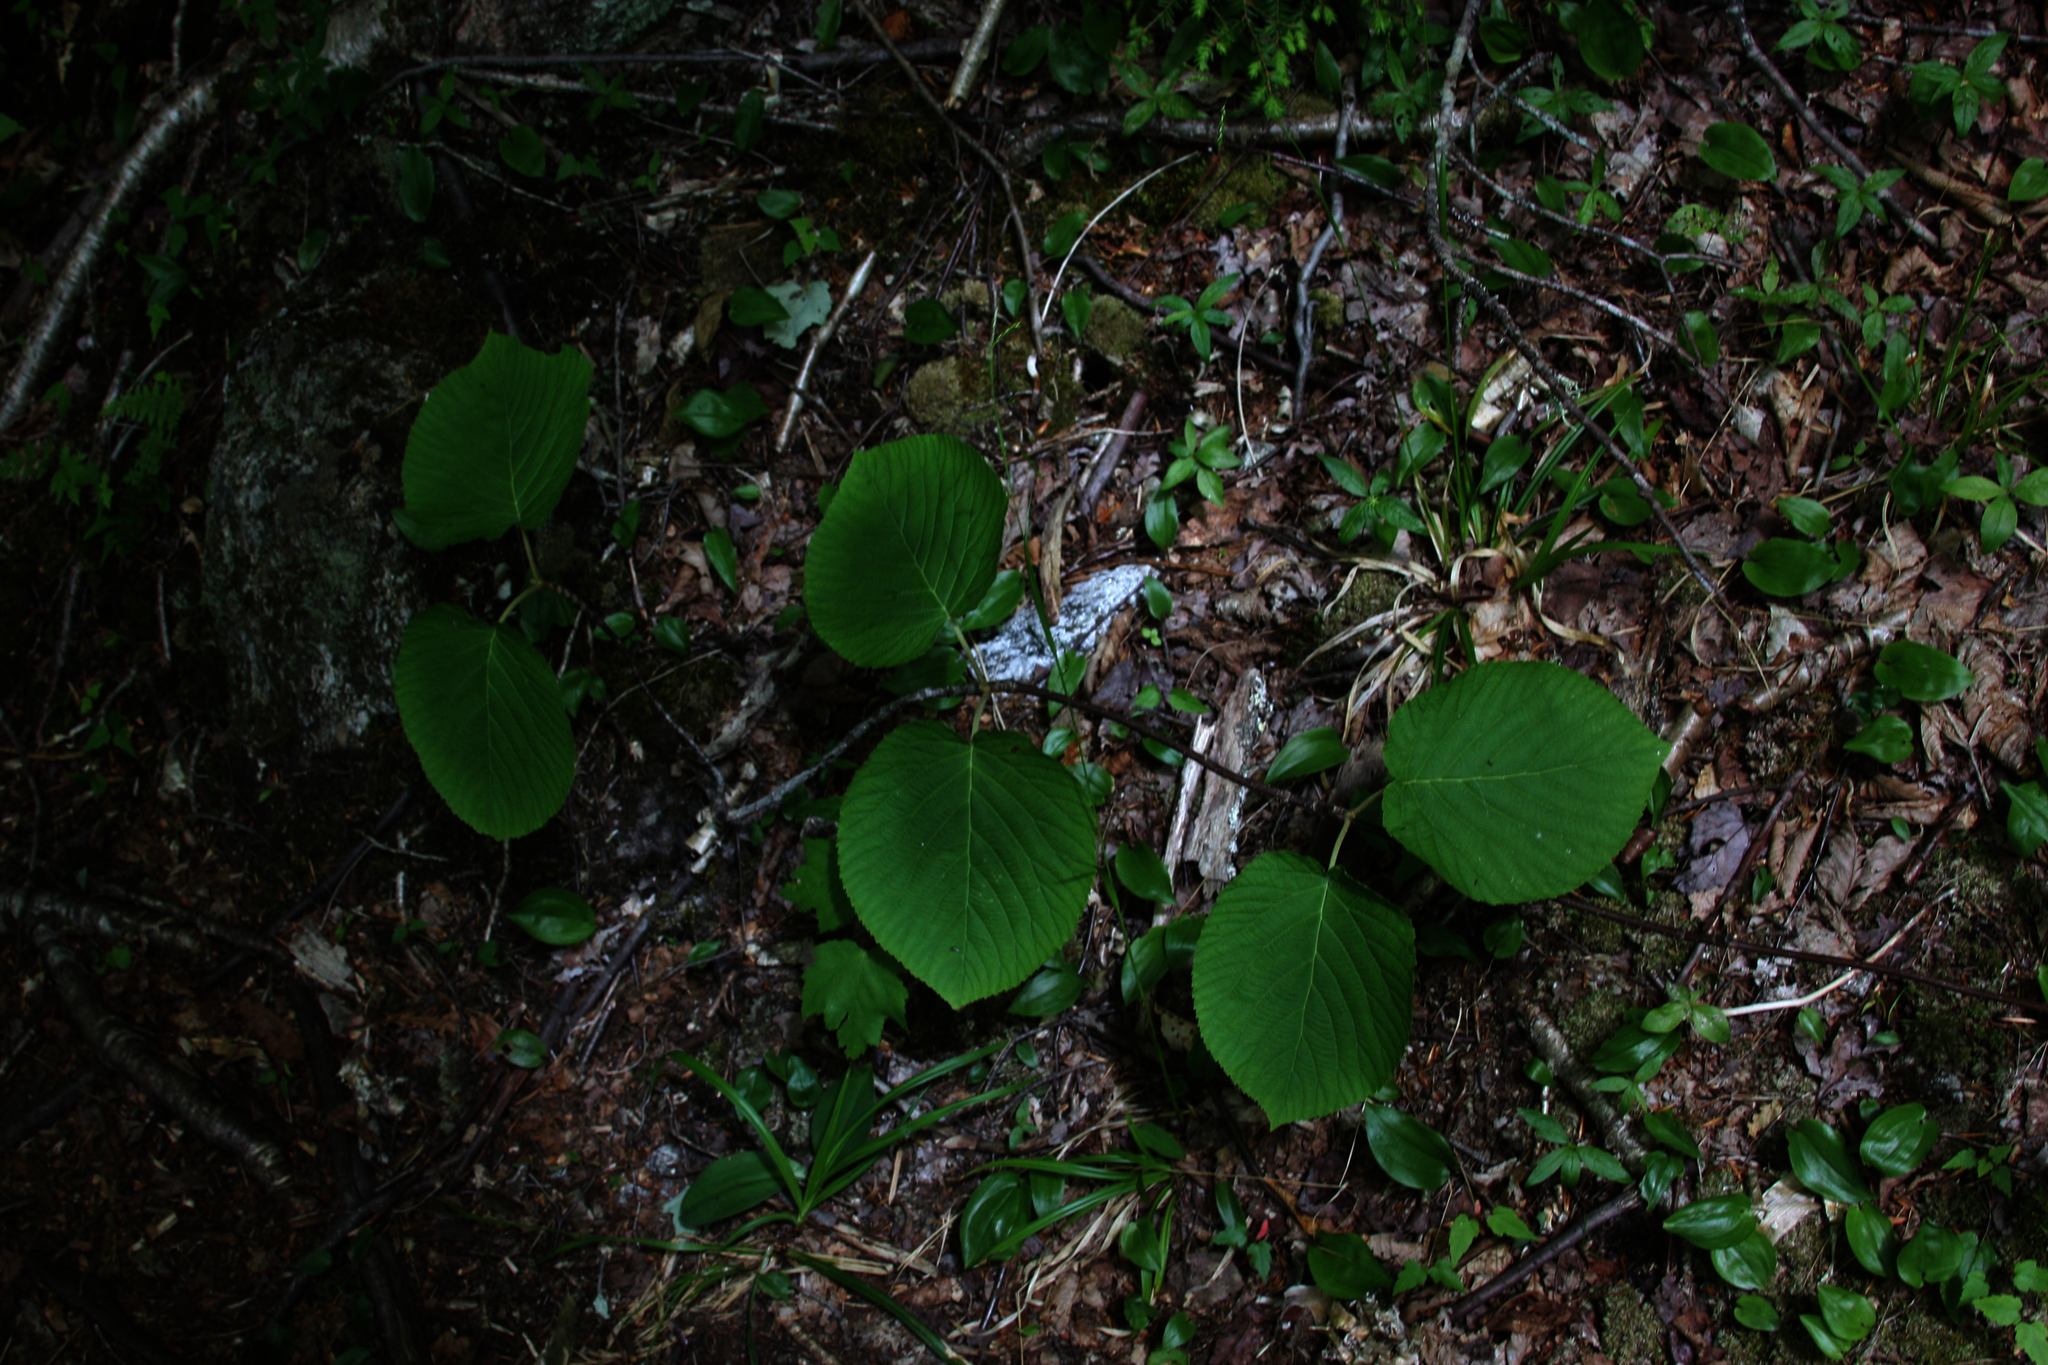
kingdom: Plantae
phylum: Tracheophyta
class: Magnoliopsida
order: Dipsacales
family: Viburnaceae
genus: Viburnum
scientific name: Viburnum lantanoides
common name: Hobblebush
